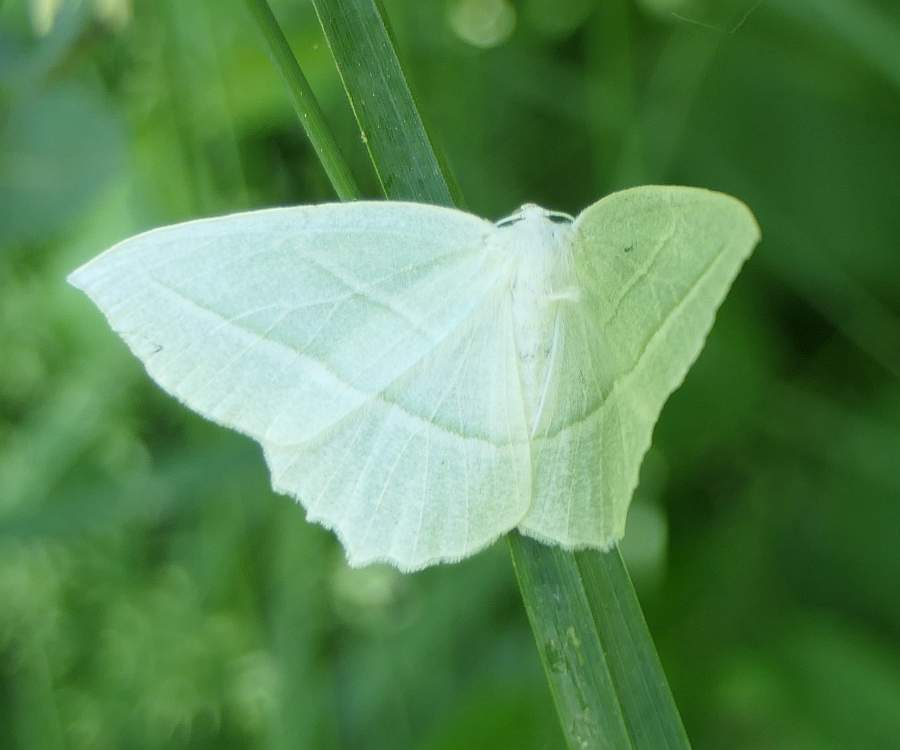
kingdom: Animalia
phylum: Arthropoda
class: Insecta
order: Lepidoptera
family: Geometridae
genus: Campaea
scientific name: Campaea perlata
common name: Fringed looper
